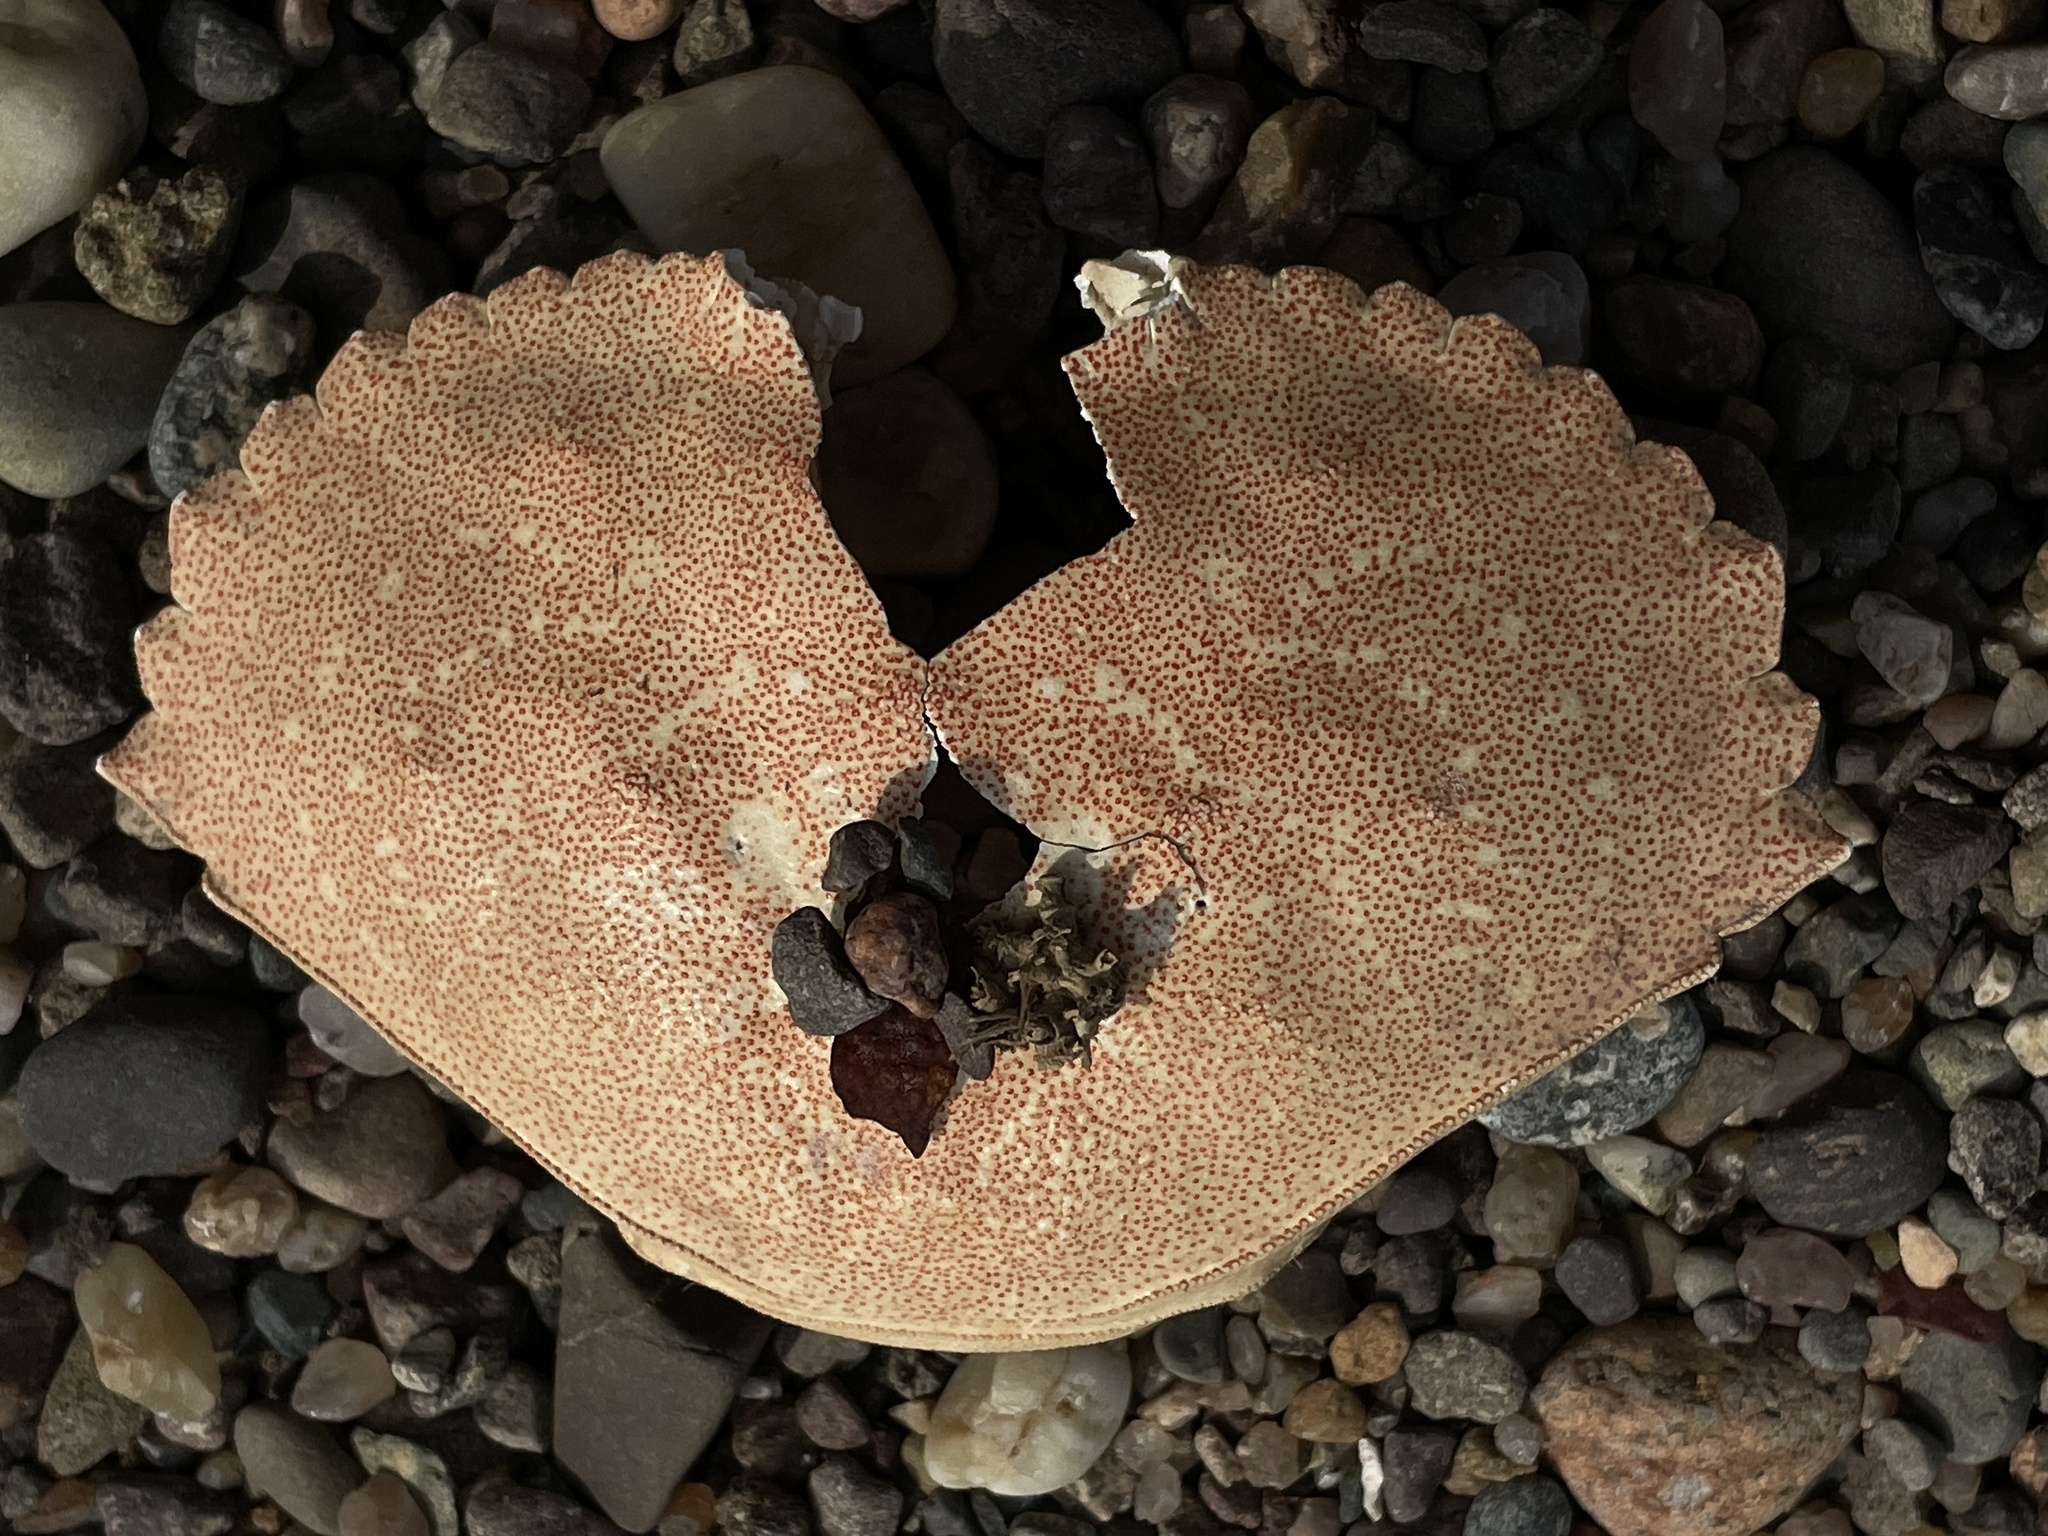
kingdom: Animalia
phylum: Arthropoda
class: Malacostraca
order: Decapoda
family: Cancridae
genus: Cancer
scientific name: Cancer irroratus
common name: Atlantic rock crab
